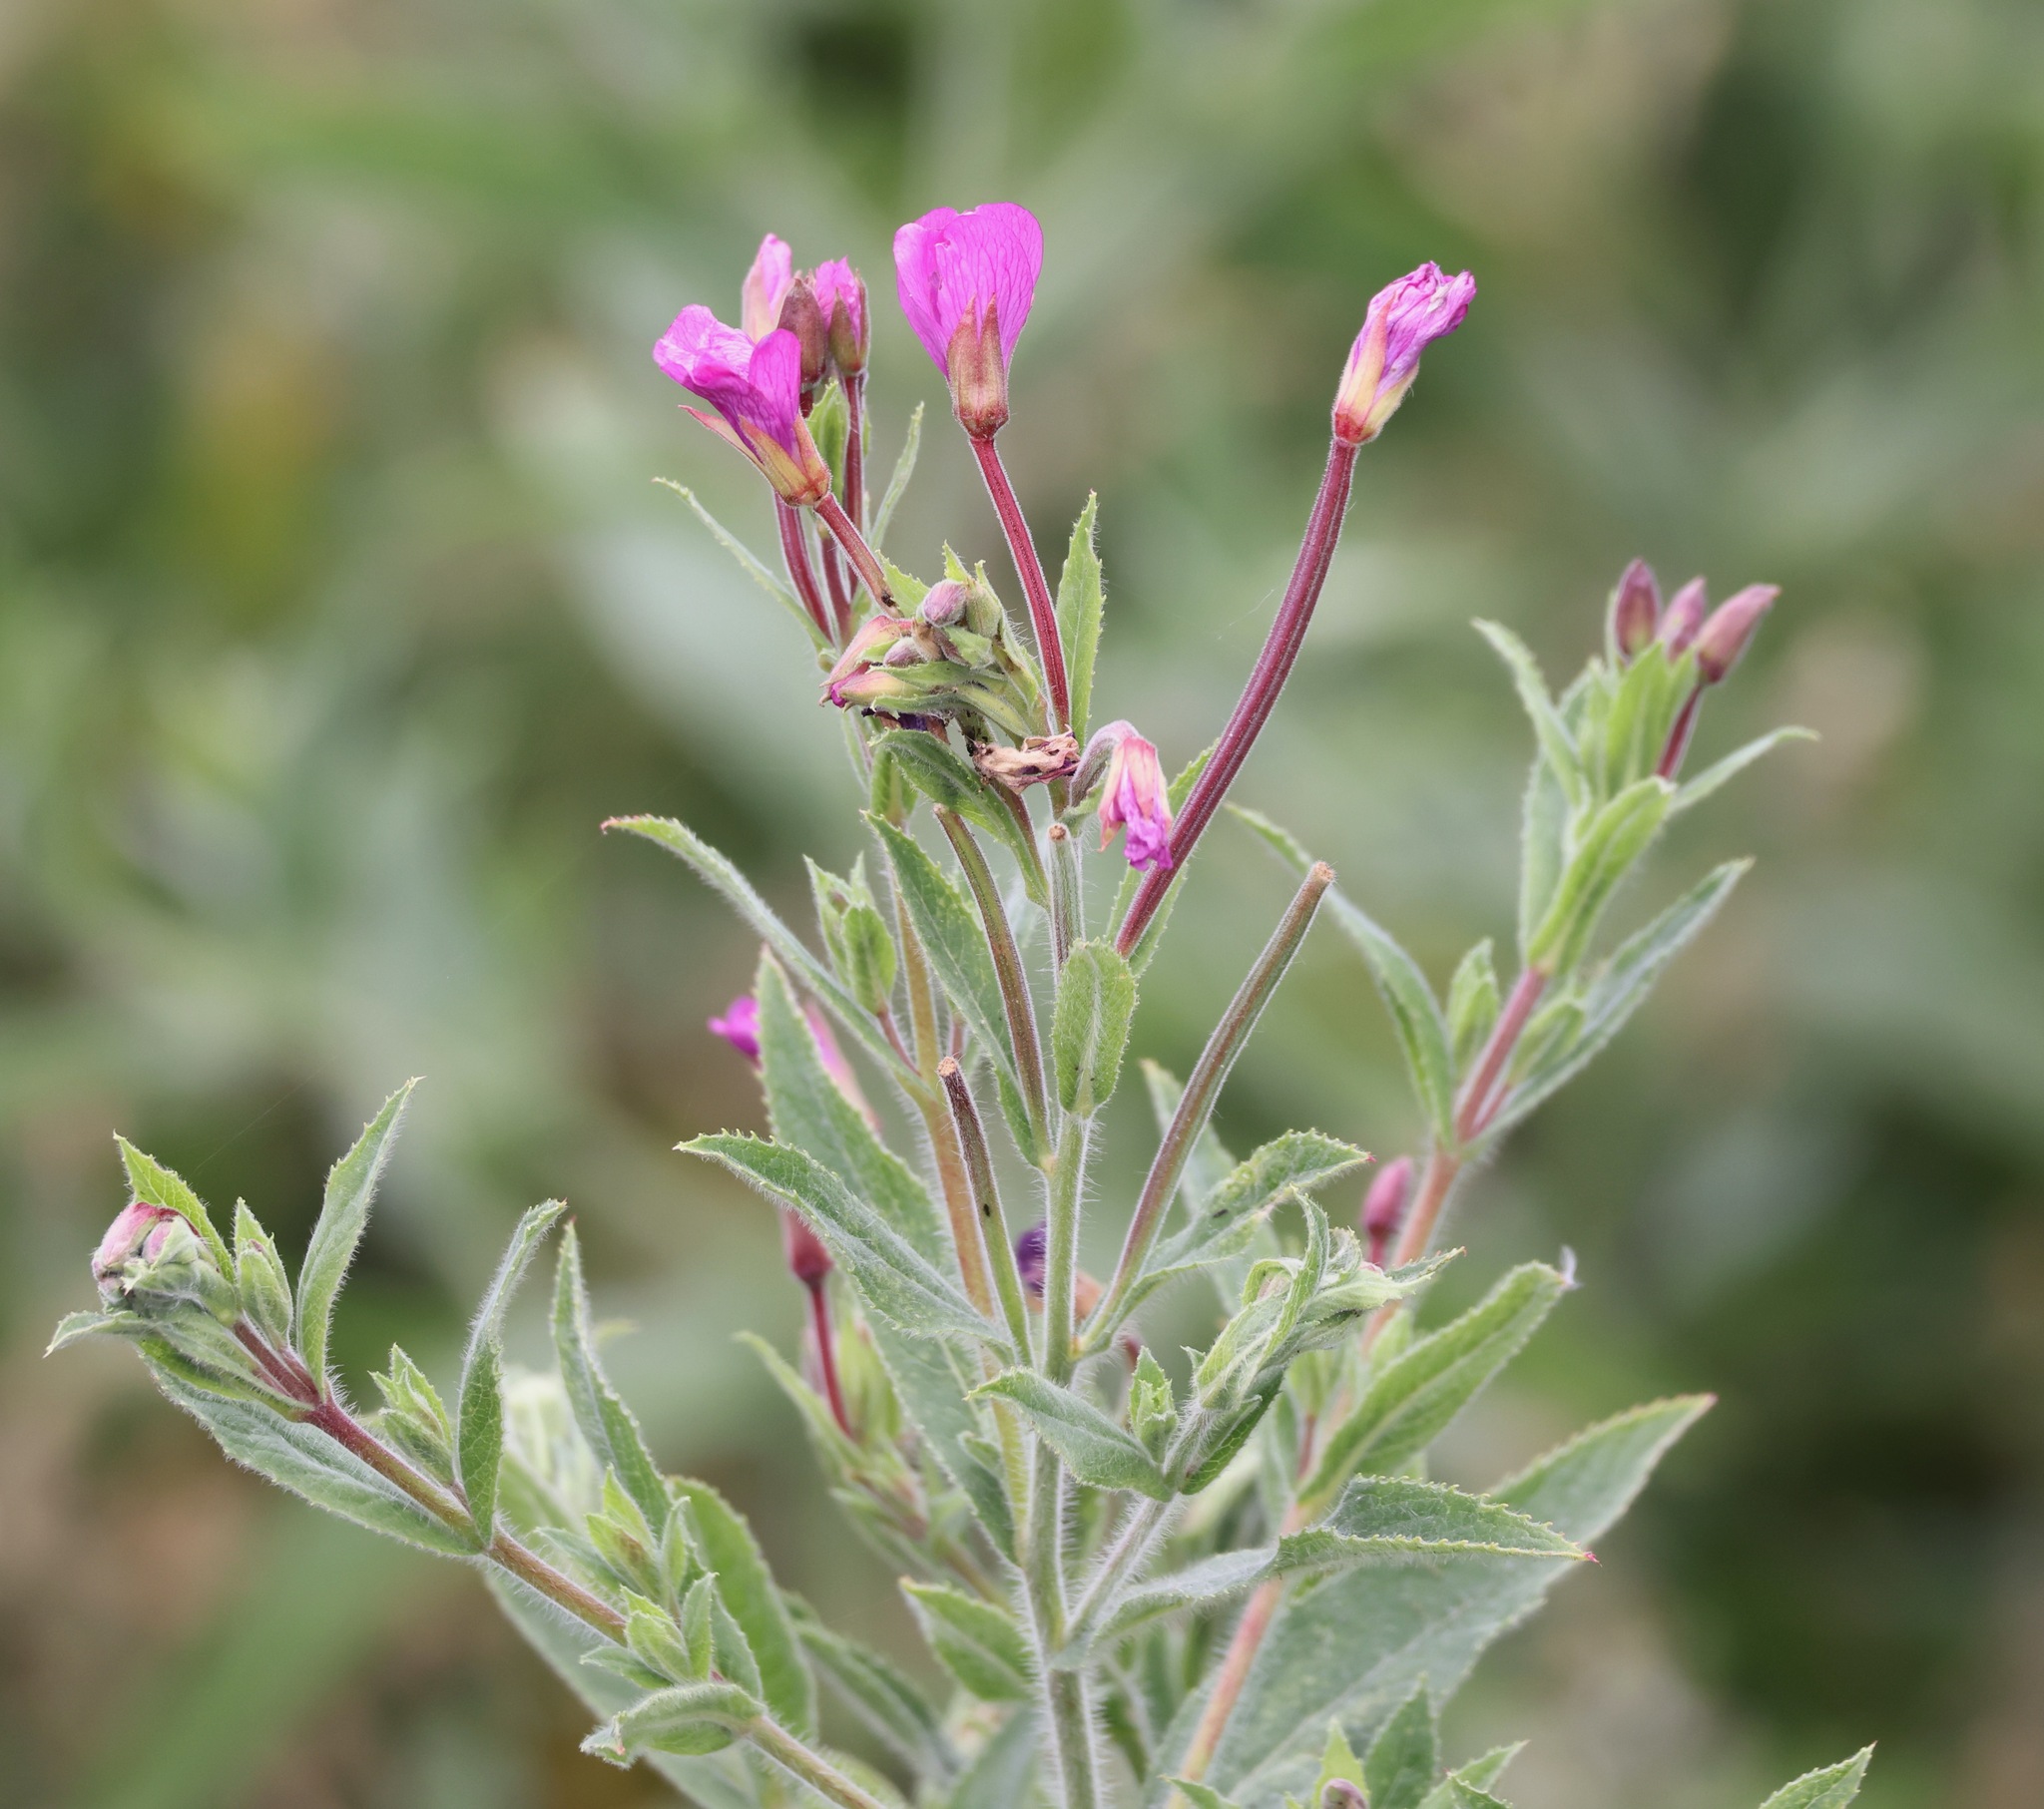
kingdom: Plantae
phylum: Tracheophyta
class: Magnoliopsida
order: Myrtales
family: Onagraceae
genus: Epilobium
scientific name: Epilobium hirsutum
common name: Great willowherb
